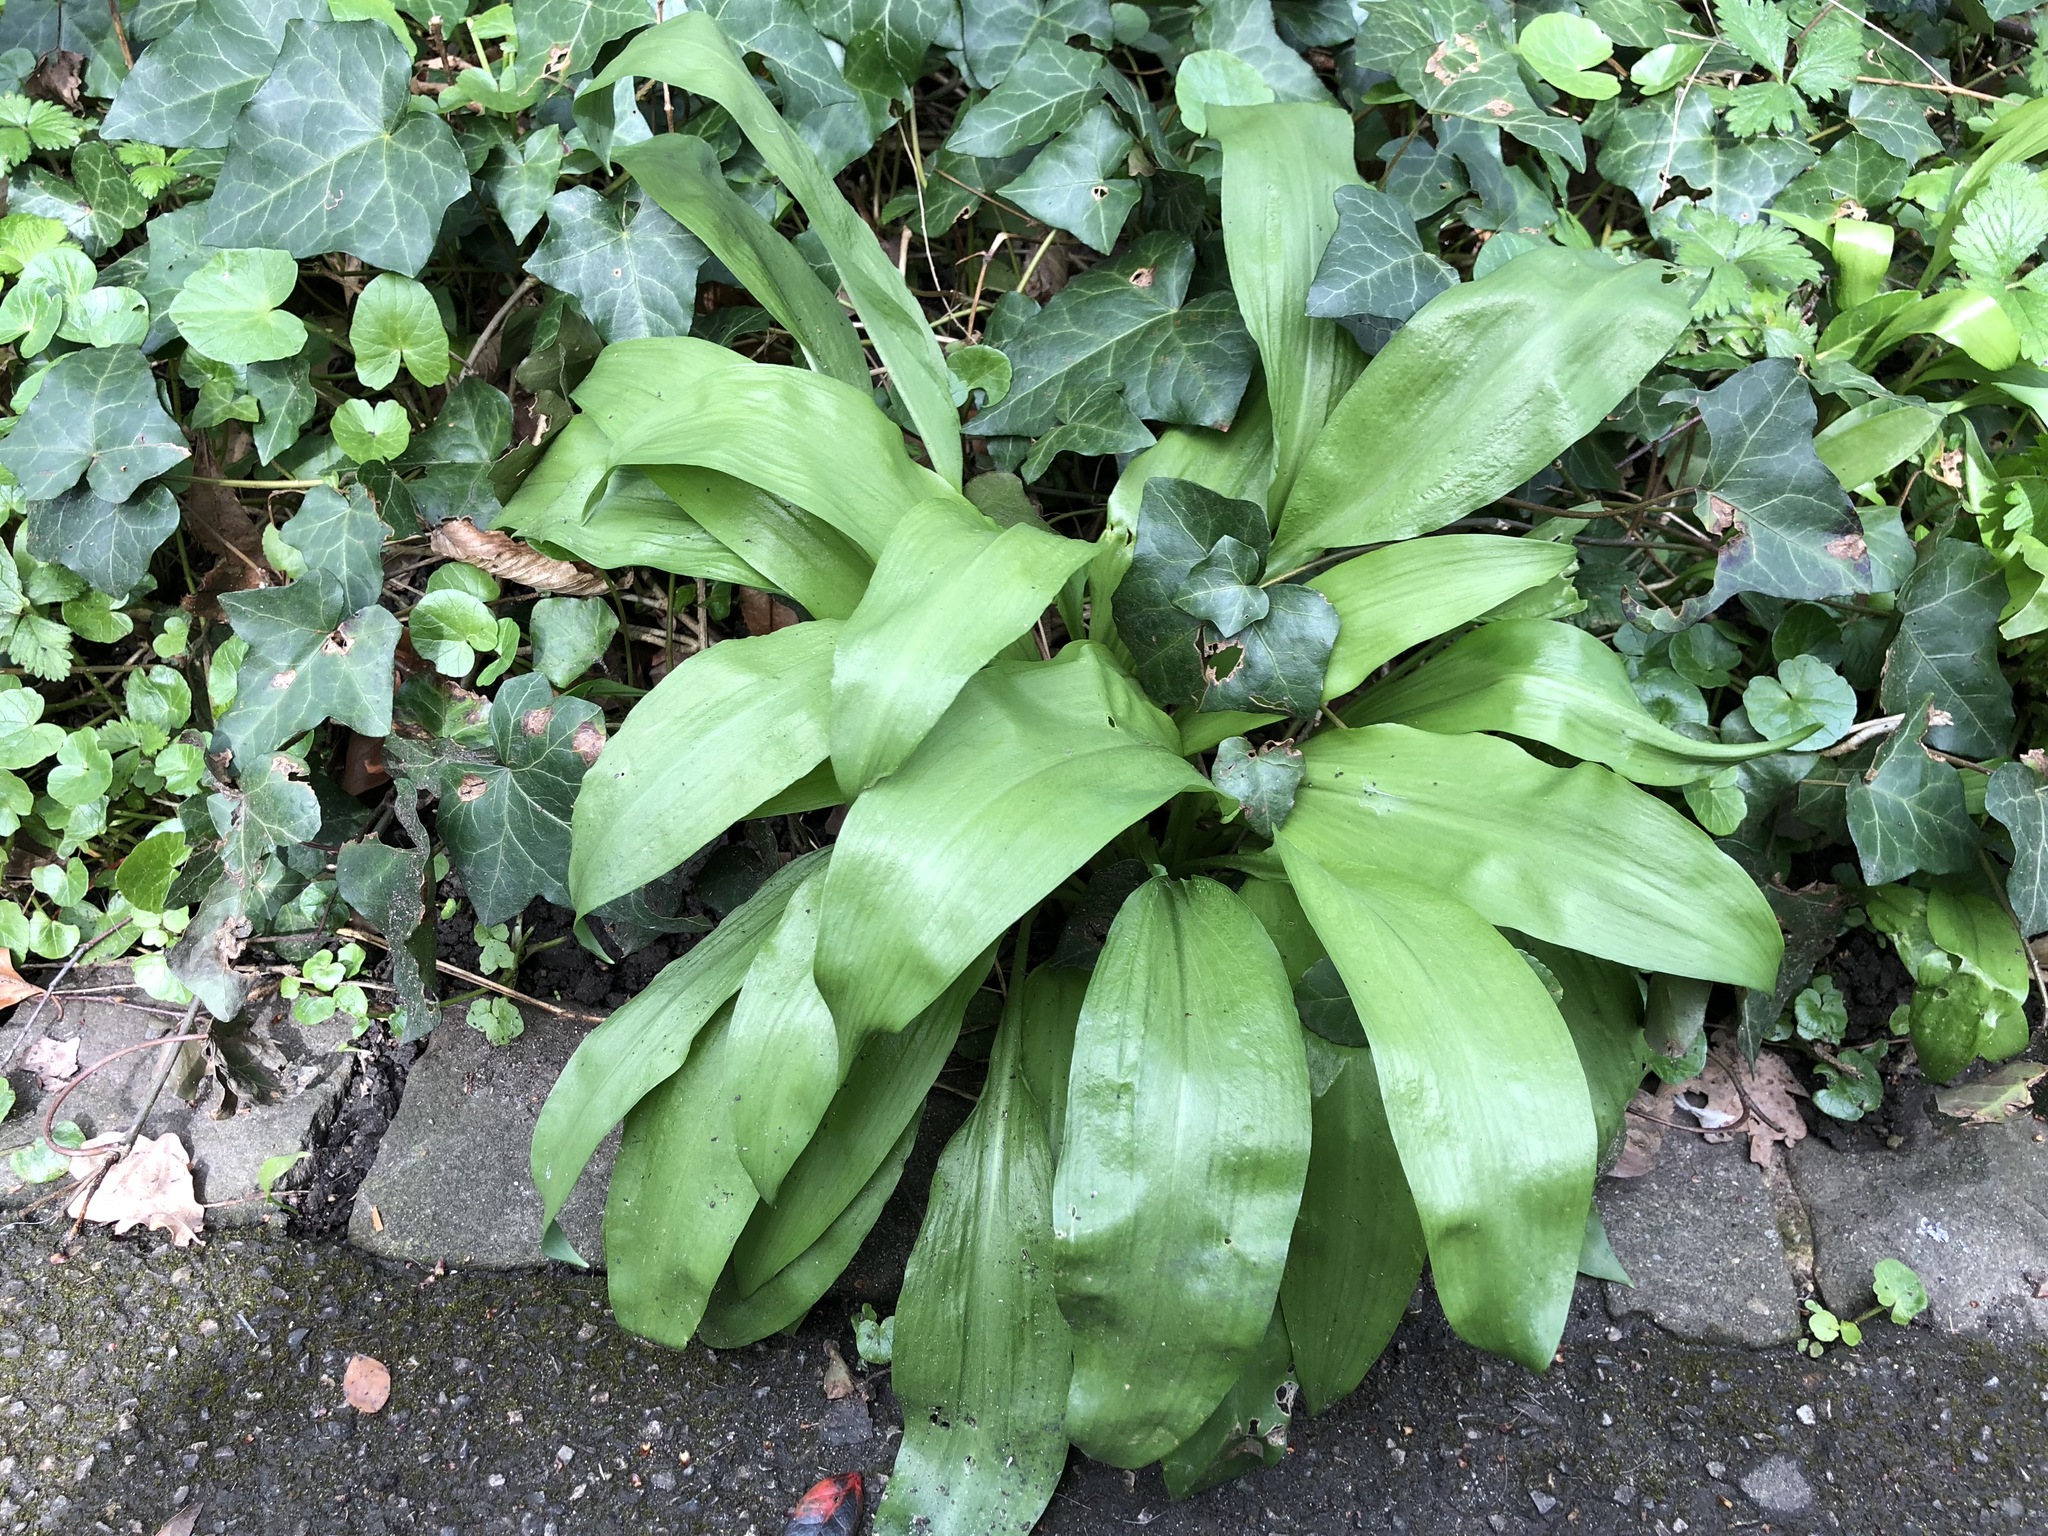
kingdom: Plantae
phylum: Tracheophyta
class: Liliopsida
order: Asparagales
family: Amaryllidaceae
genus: Allium
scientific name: Allium ursinum
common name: Ramsons
